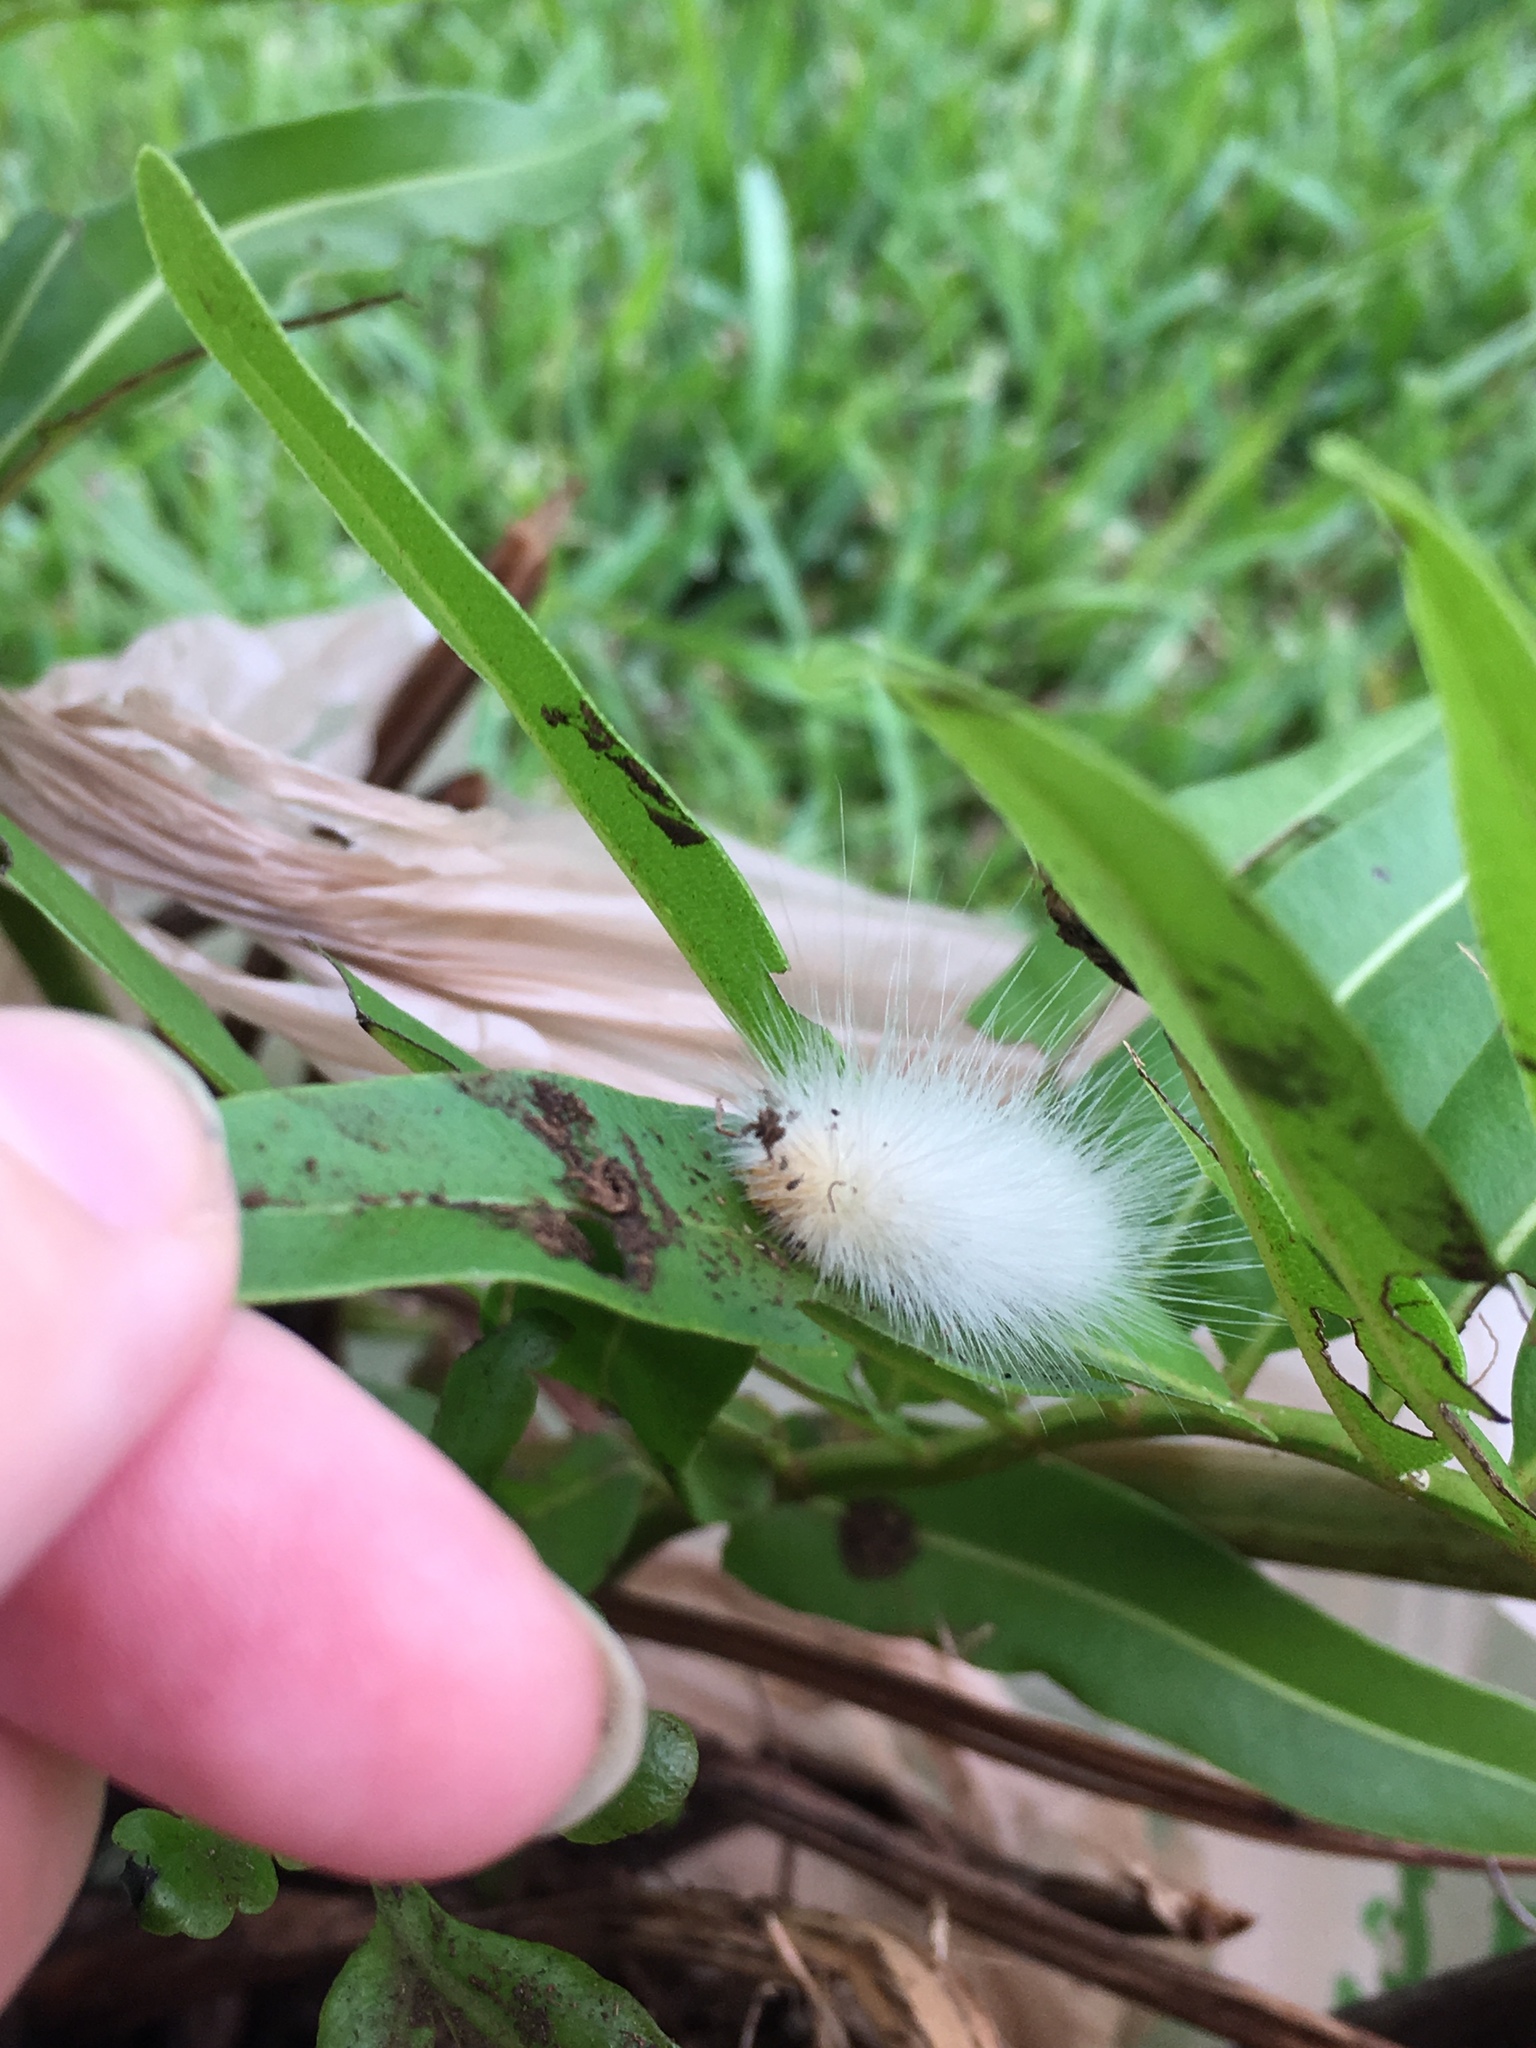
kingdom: Animalia
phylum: Arthropoda
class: Insecta
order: Lepidoptera
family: Erebidae
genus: Spilosoma
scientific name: Spilosoma virginica
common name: Virginia tiger moth
